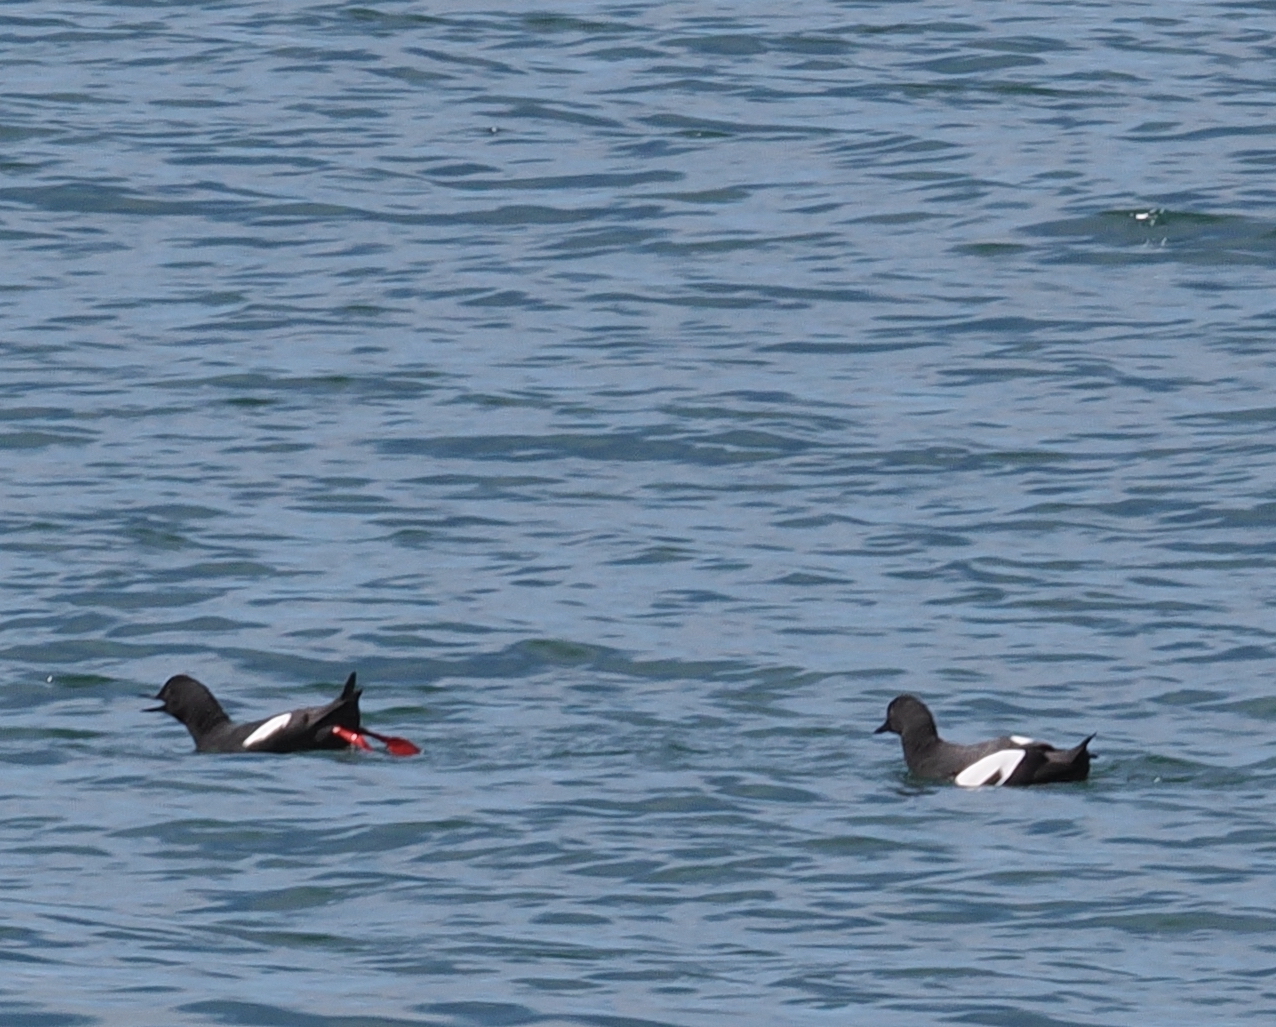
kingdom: Animalia
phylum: Chordata
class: Aves
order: Charadriiformes
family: Alcidae
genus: Cepphus
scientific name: Cepphus columba
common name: Pigeon guillemot
